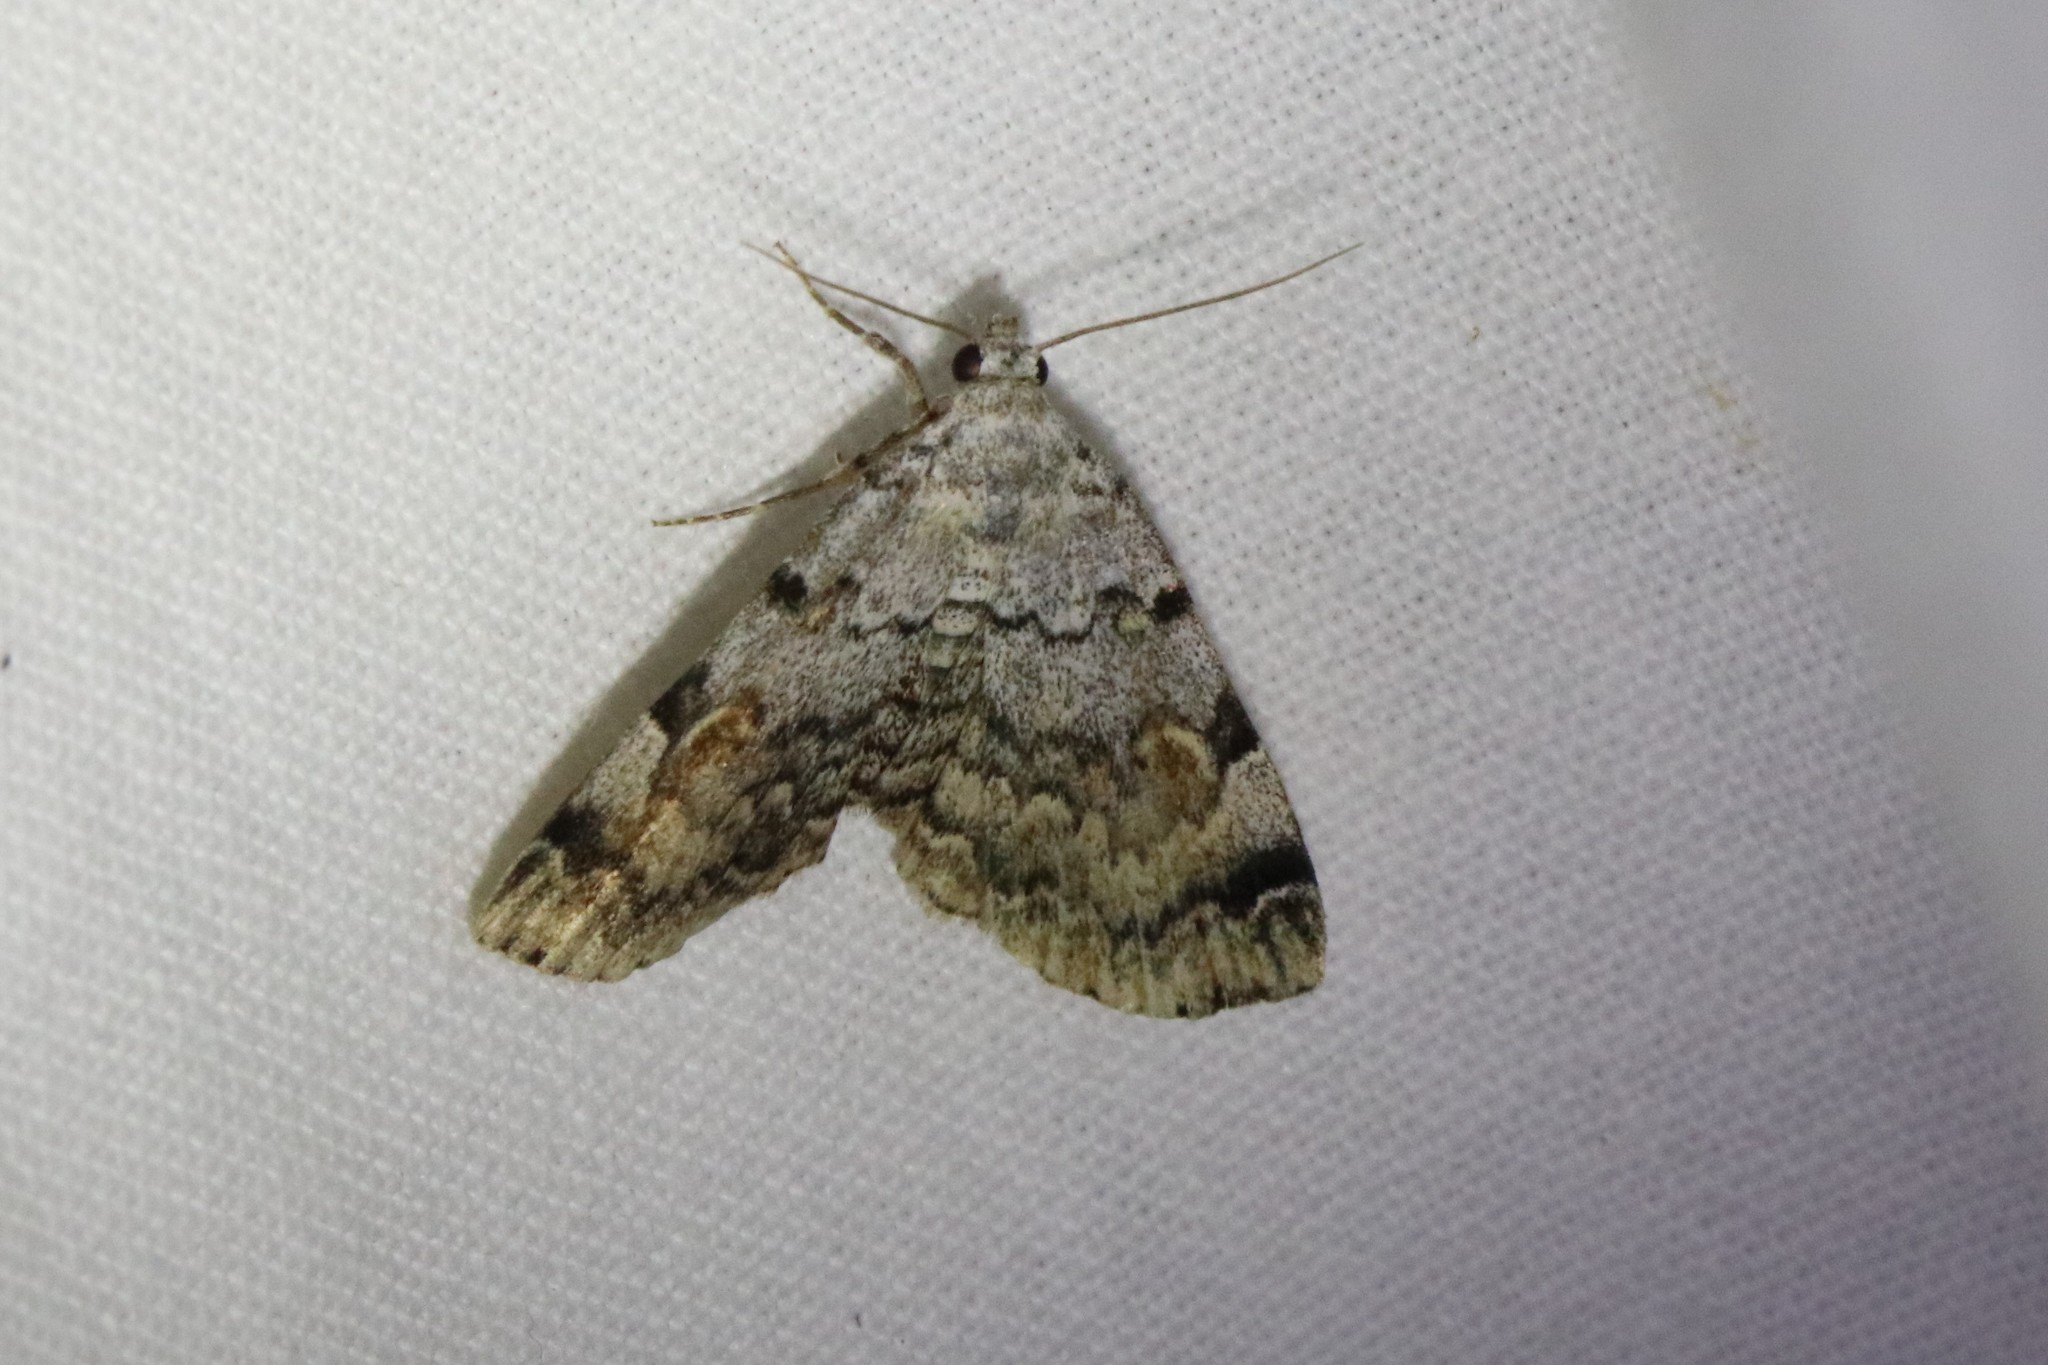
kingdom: Animalia
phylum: Arthropoda
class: Insecta
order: Lepidoptera
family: Erebidae
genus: Idia
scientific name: Idia americalis
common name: American idia moth
